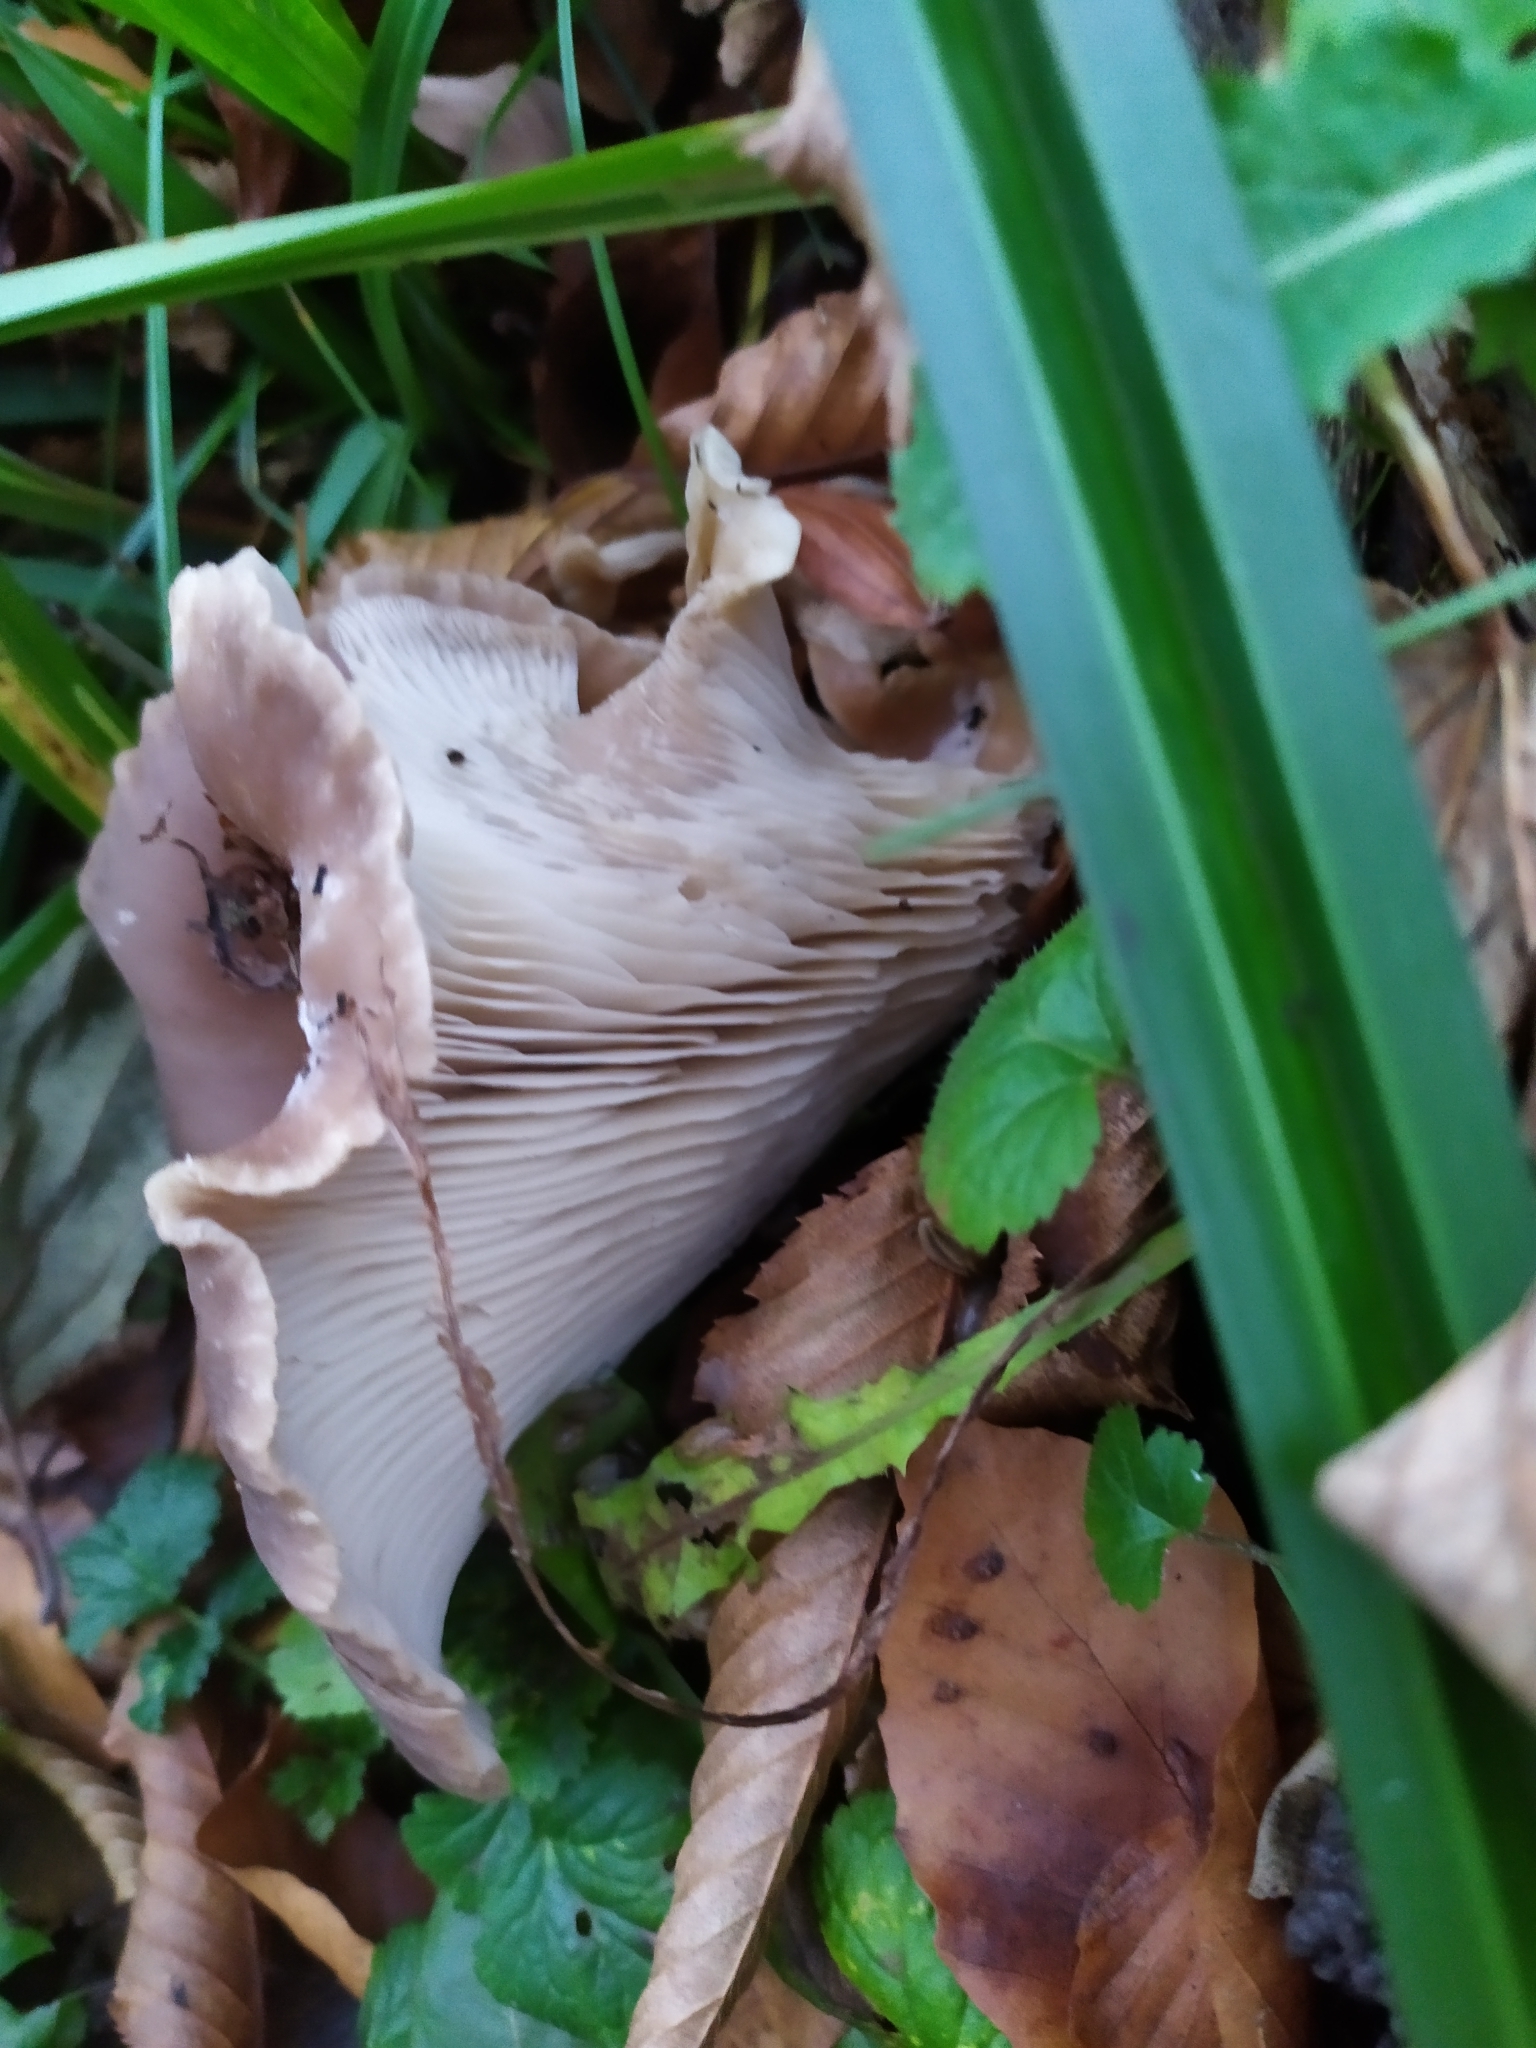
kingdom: Fungi
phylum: Basidiomycota
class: Agaricomycetes
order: Agaricales
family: Tricholomataceae
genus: Collybia
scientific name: Collybia
